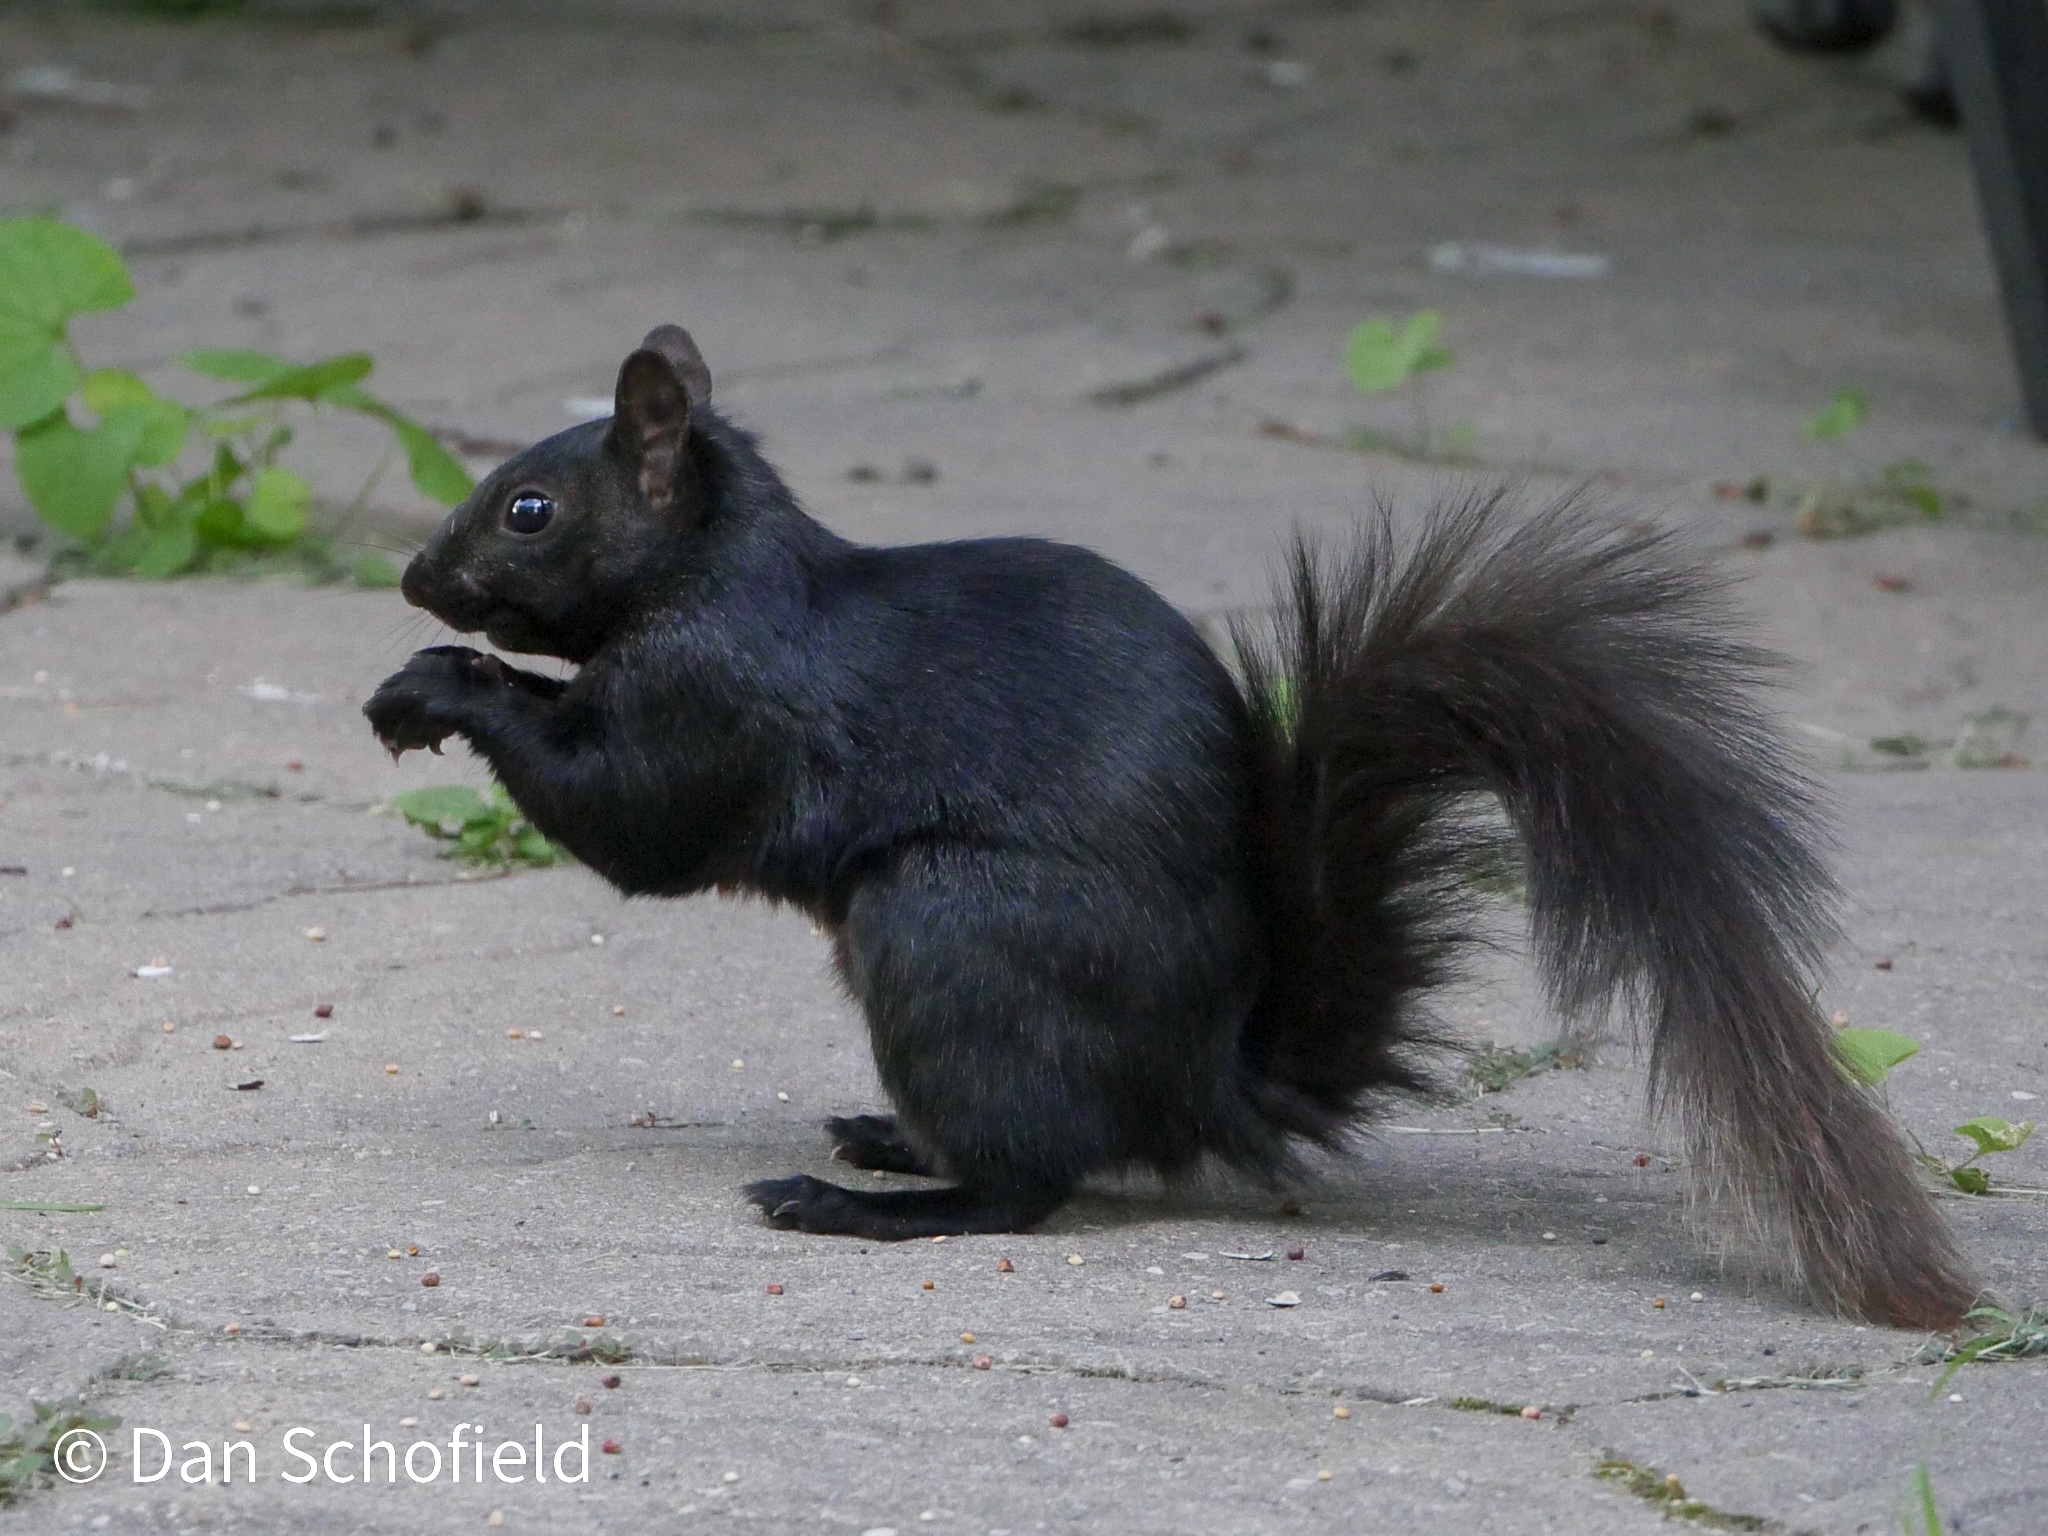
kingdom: Animalia
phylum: Chordata
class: Mammalia
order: Rodentia
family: Sciuridae
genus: Sciurus
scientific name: Sciurus carolinensis
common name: Eastern gray squirrel
